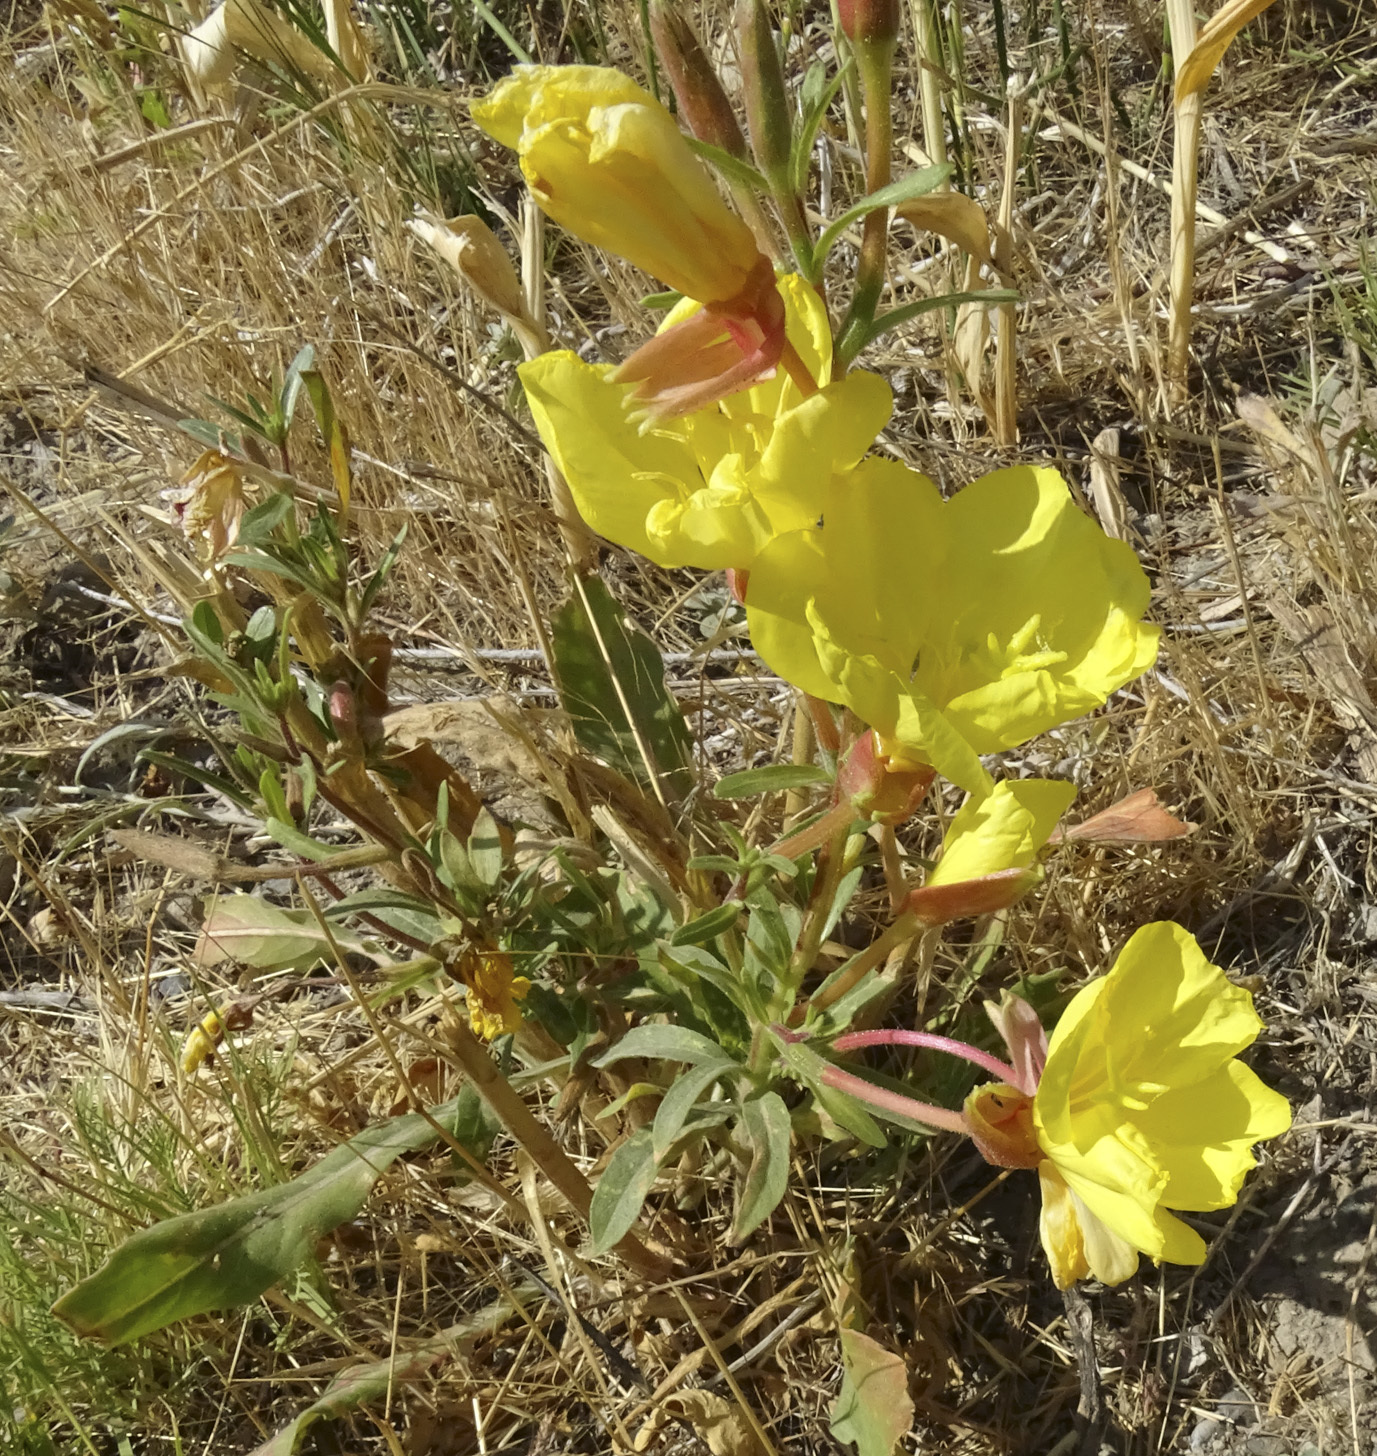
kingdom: Plantae
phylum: Tracheophyta
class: Magnoliopsida
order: Myrtales
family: Onagraceae
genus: Oenothera
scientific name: Oenothera elata
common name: Hooker's evening-primrose
